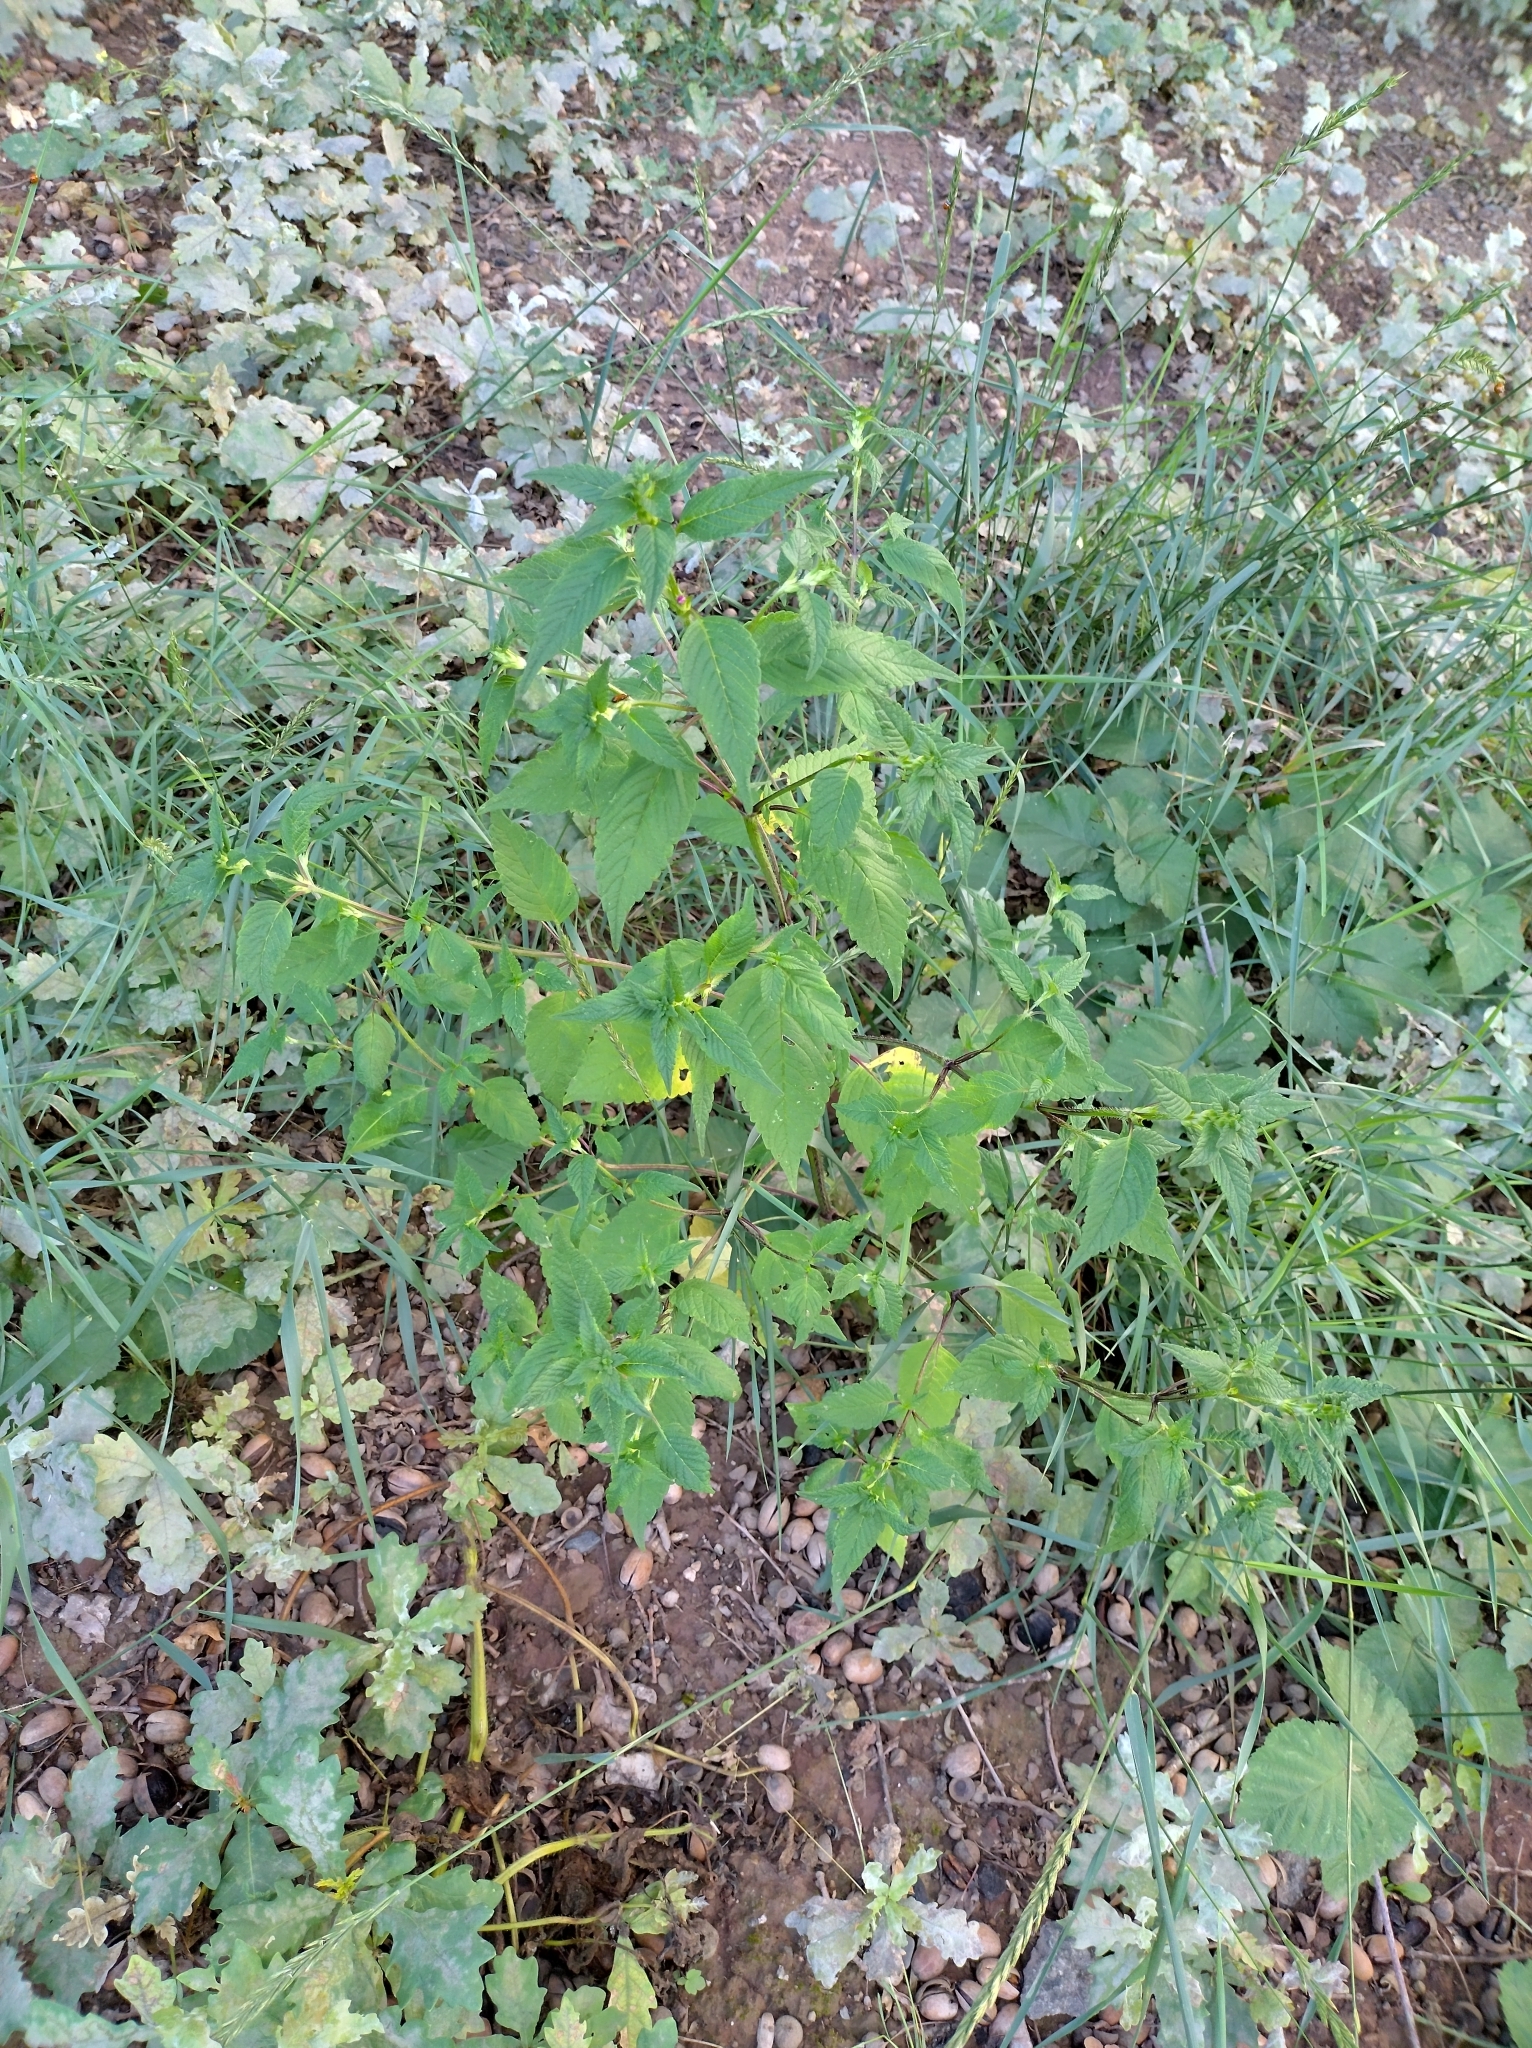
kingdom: Plantae
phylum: Tracheophyta
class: Magnoliopsida
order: Lamiales
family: Lamiaceae
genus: Galeopsis
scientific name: Galeopsis tetrahit
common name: Common hemp-nettle
